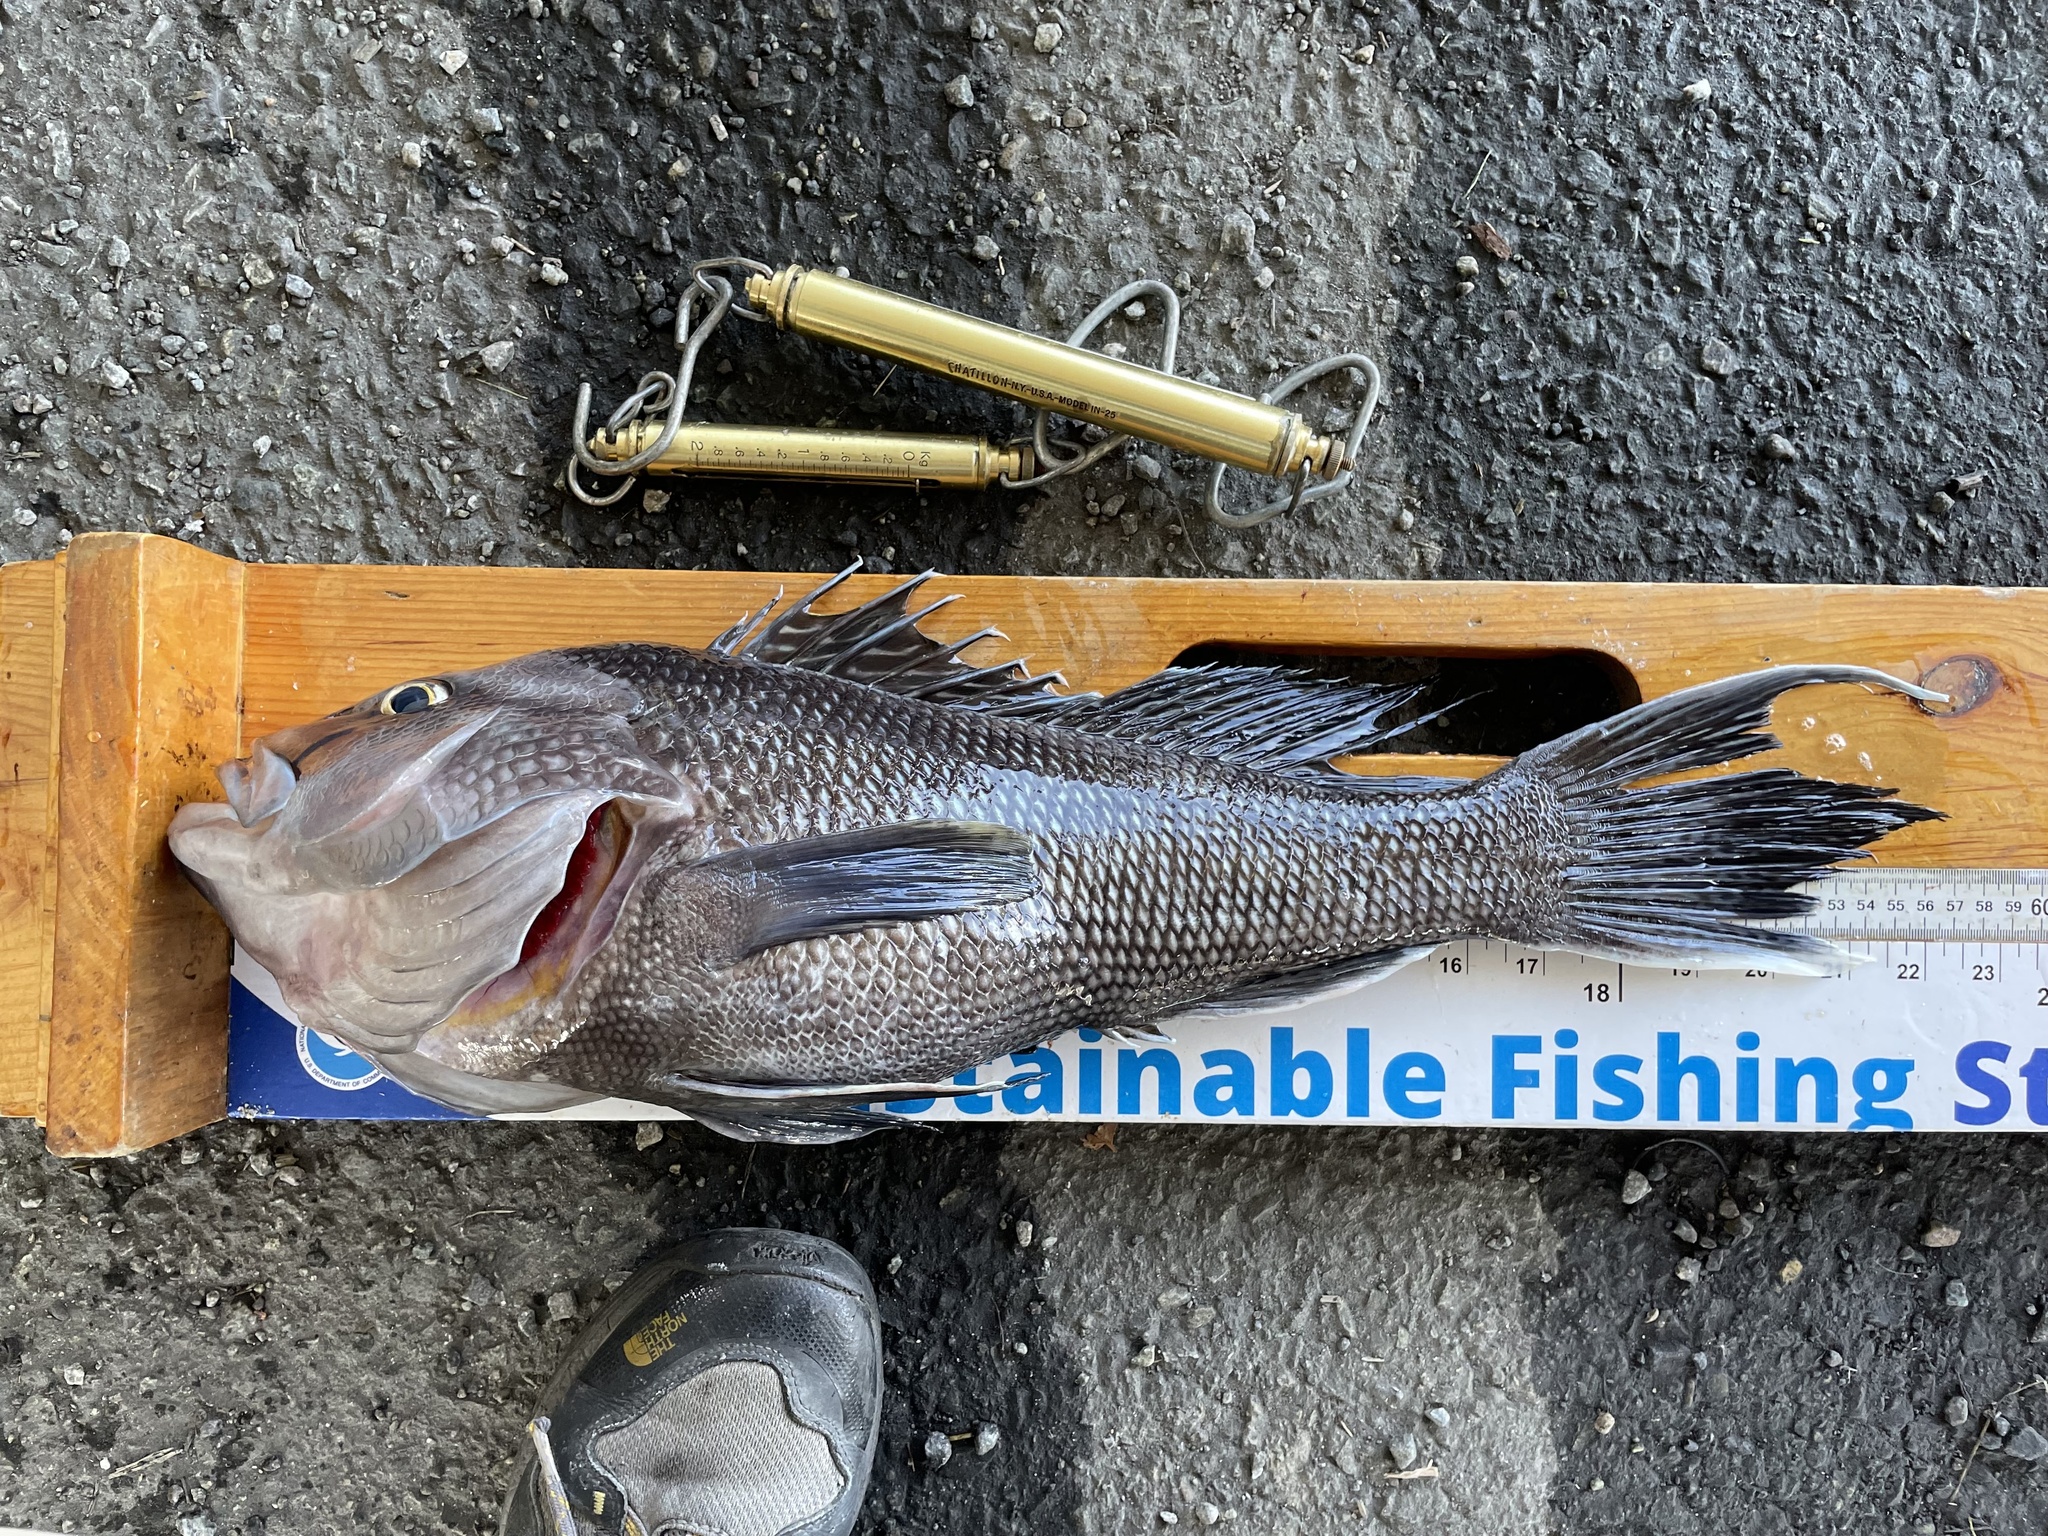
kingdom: Animalia
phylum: Chordata
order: Perciformes
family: Serranidae
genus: Centropristis
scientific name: Centropristis striata
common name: Black sea bass
